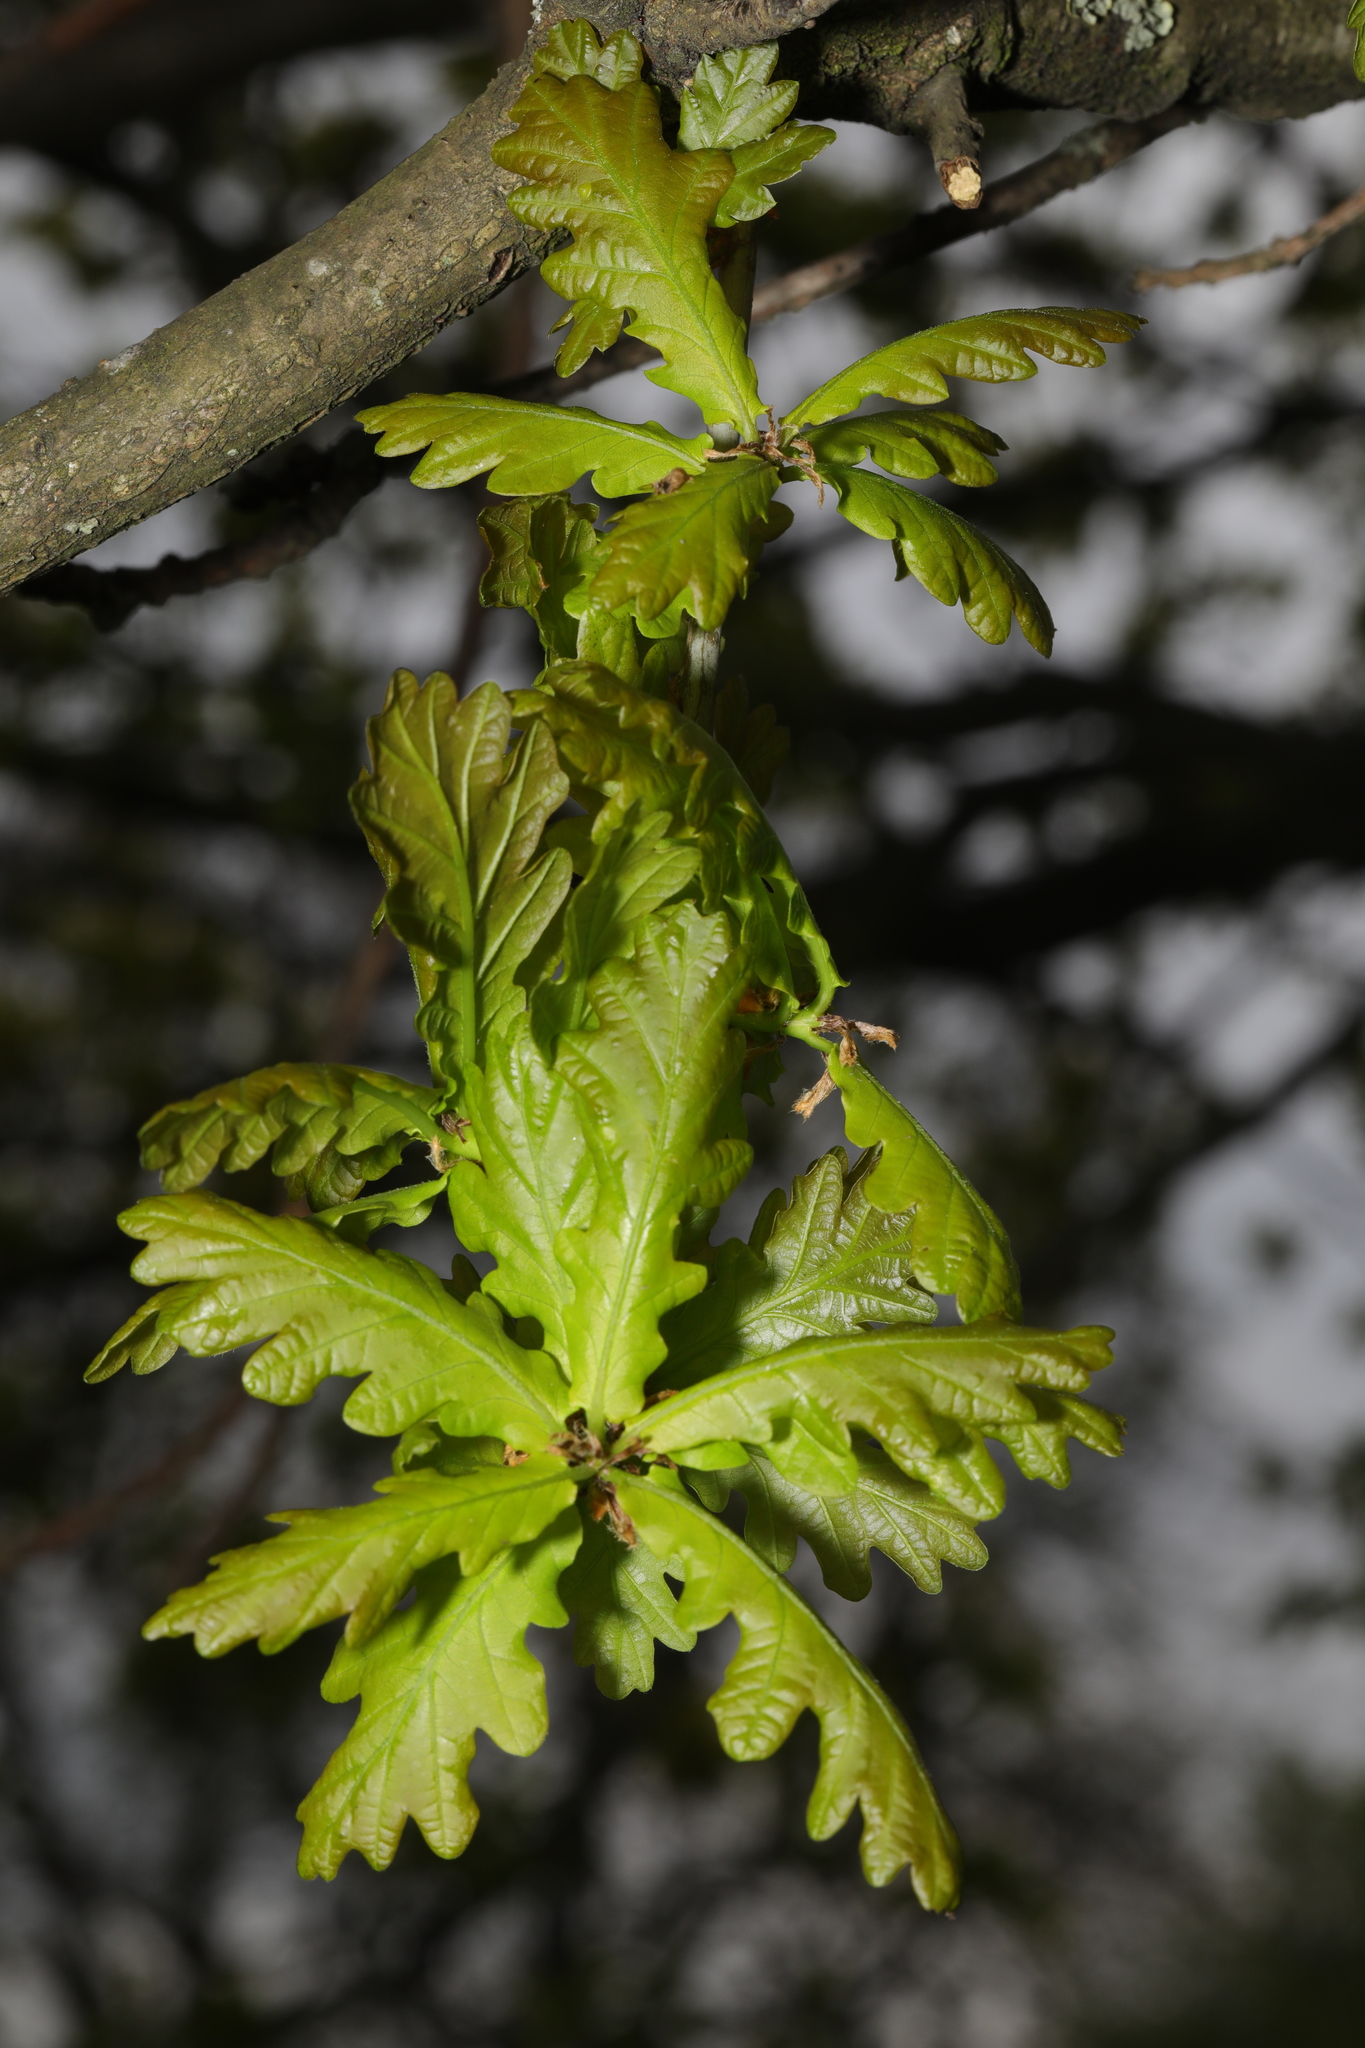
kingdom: Plantae
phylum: Tracheophyta
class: Magnoliopsida
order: Fagales
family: Fagaceae
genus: Quercus
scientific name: Quercus robur
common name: Pedunculate oak
